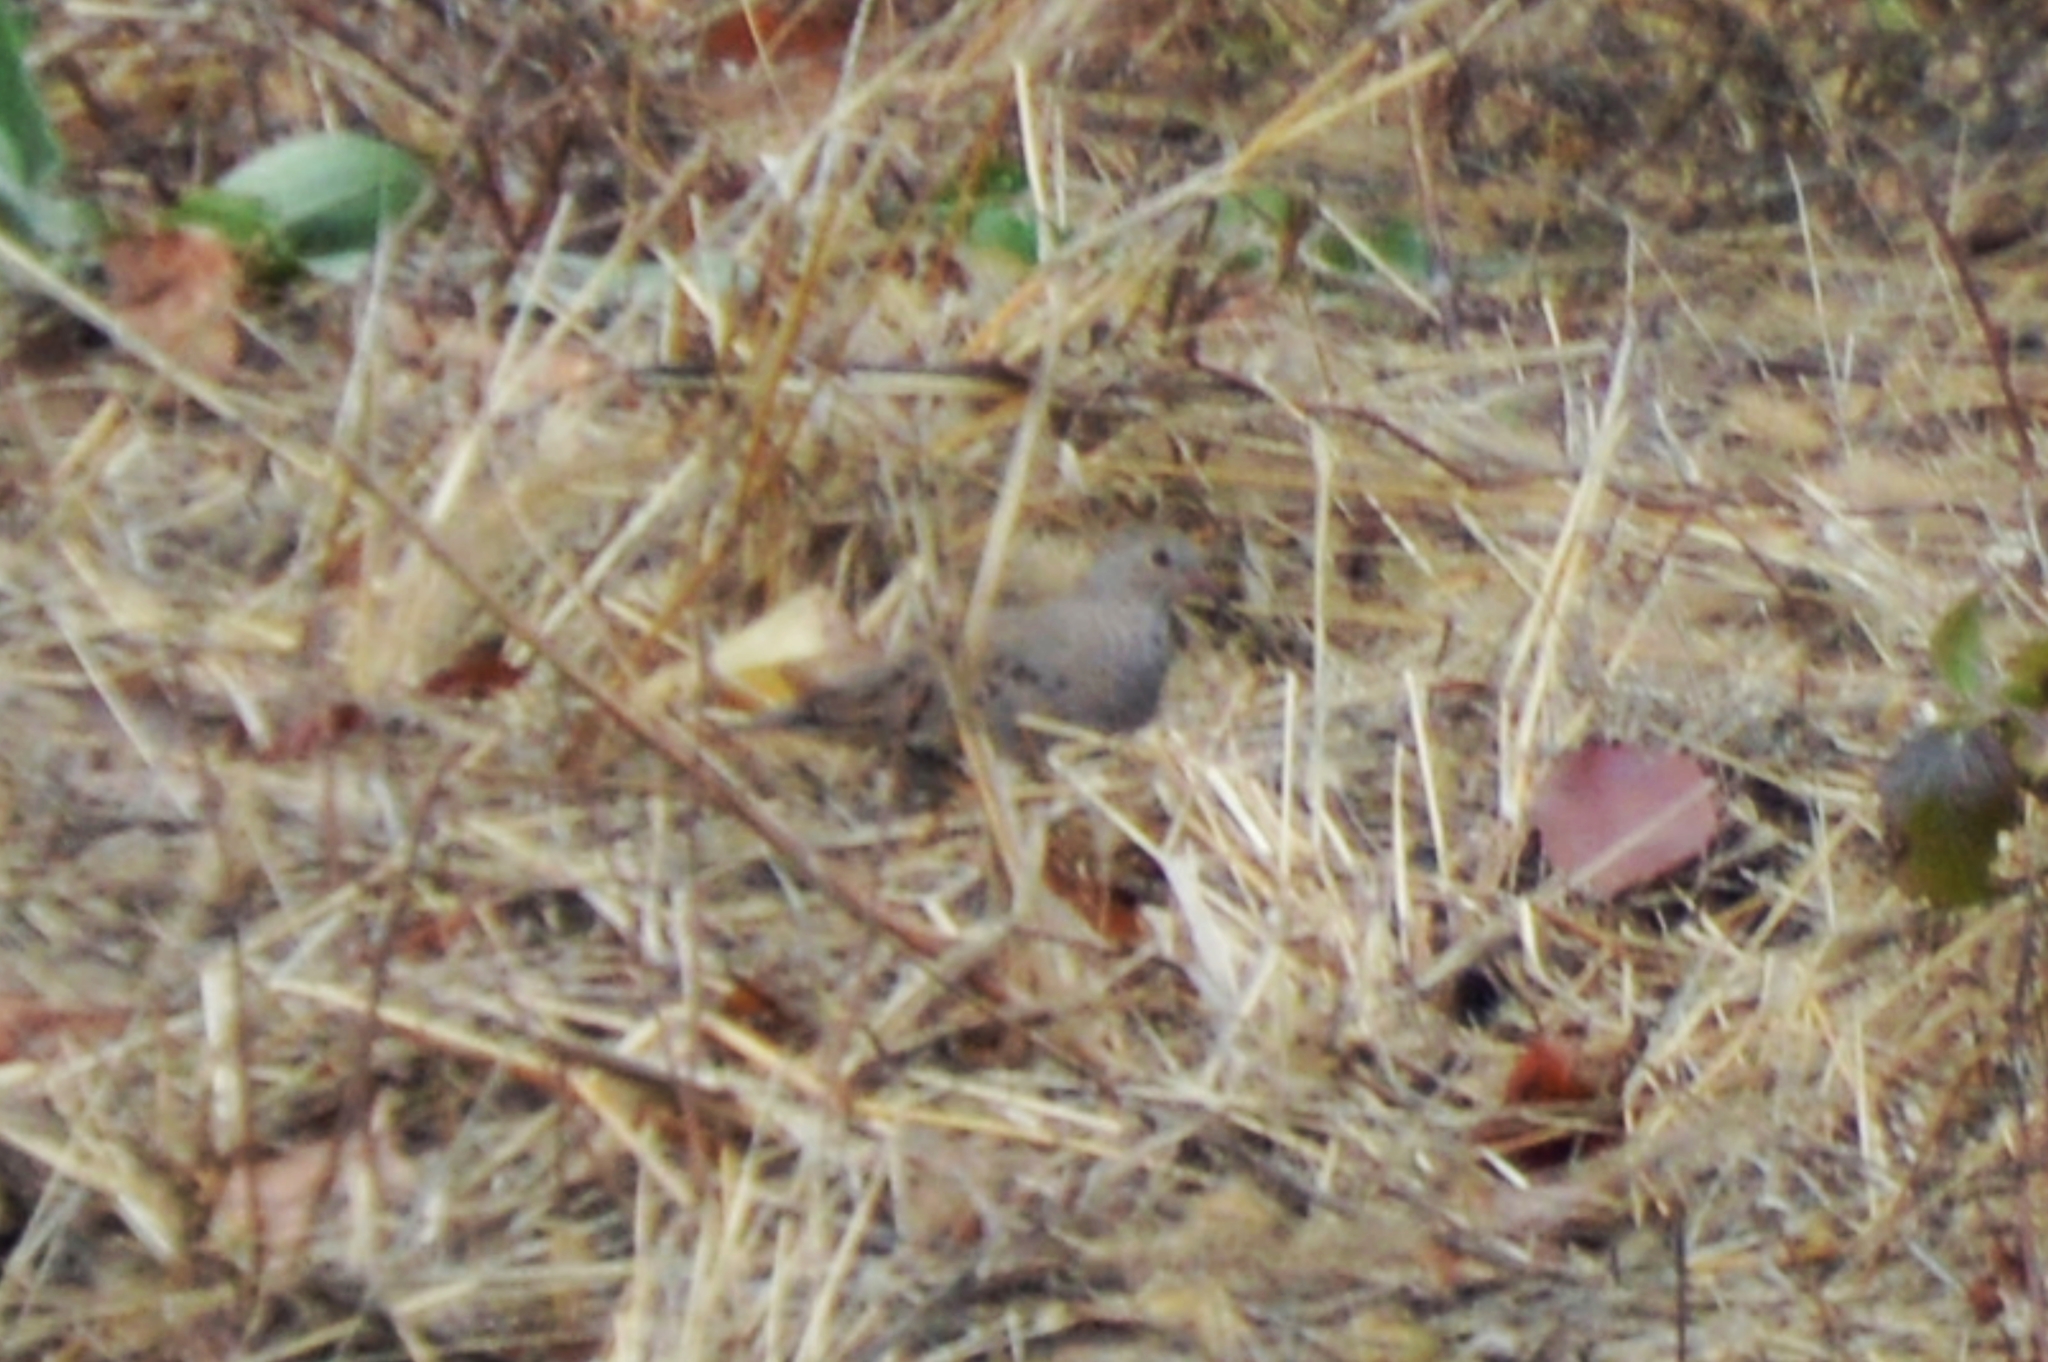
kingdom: Animalia
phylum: Chordata
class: Aves
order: Columbiformes
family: Columbidae
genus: Columbina
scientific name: Columbina passerina
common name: Common ground-dove
